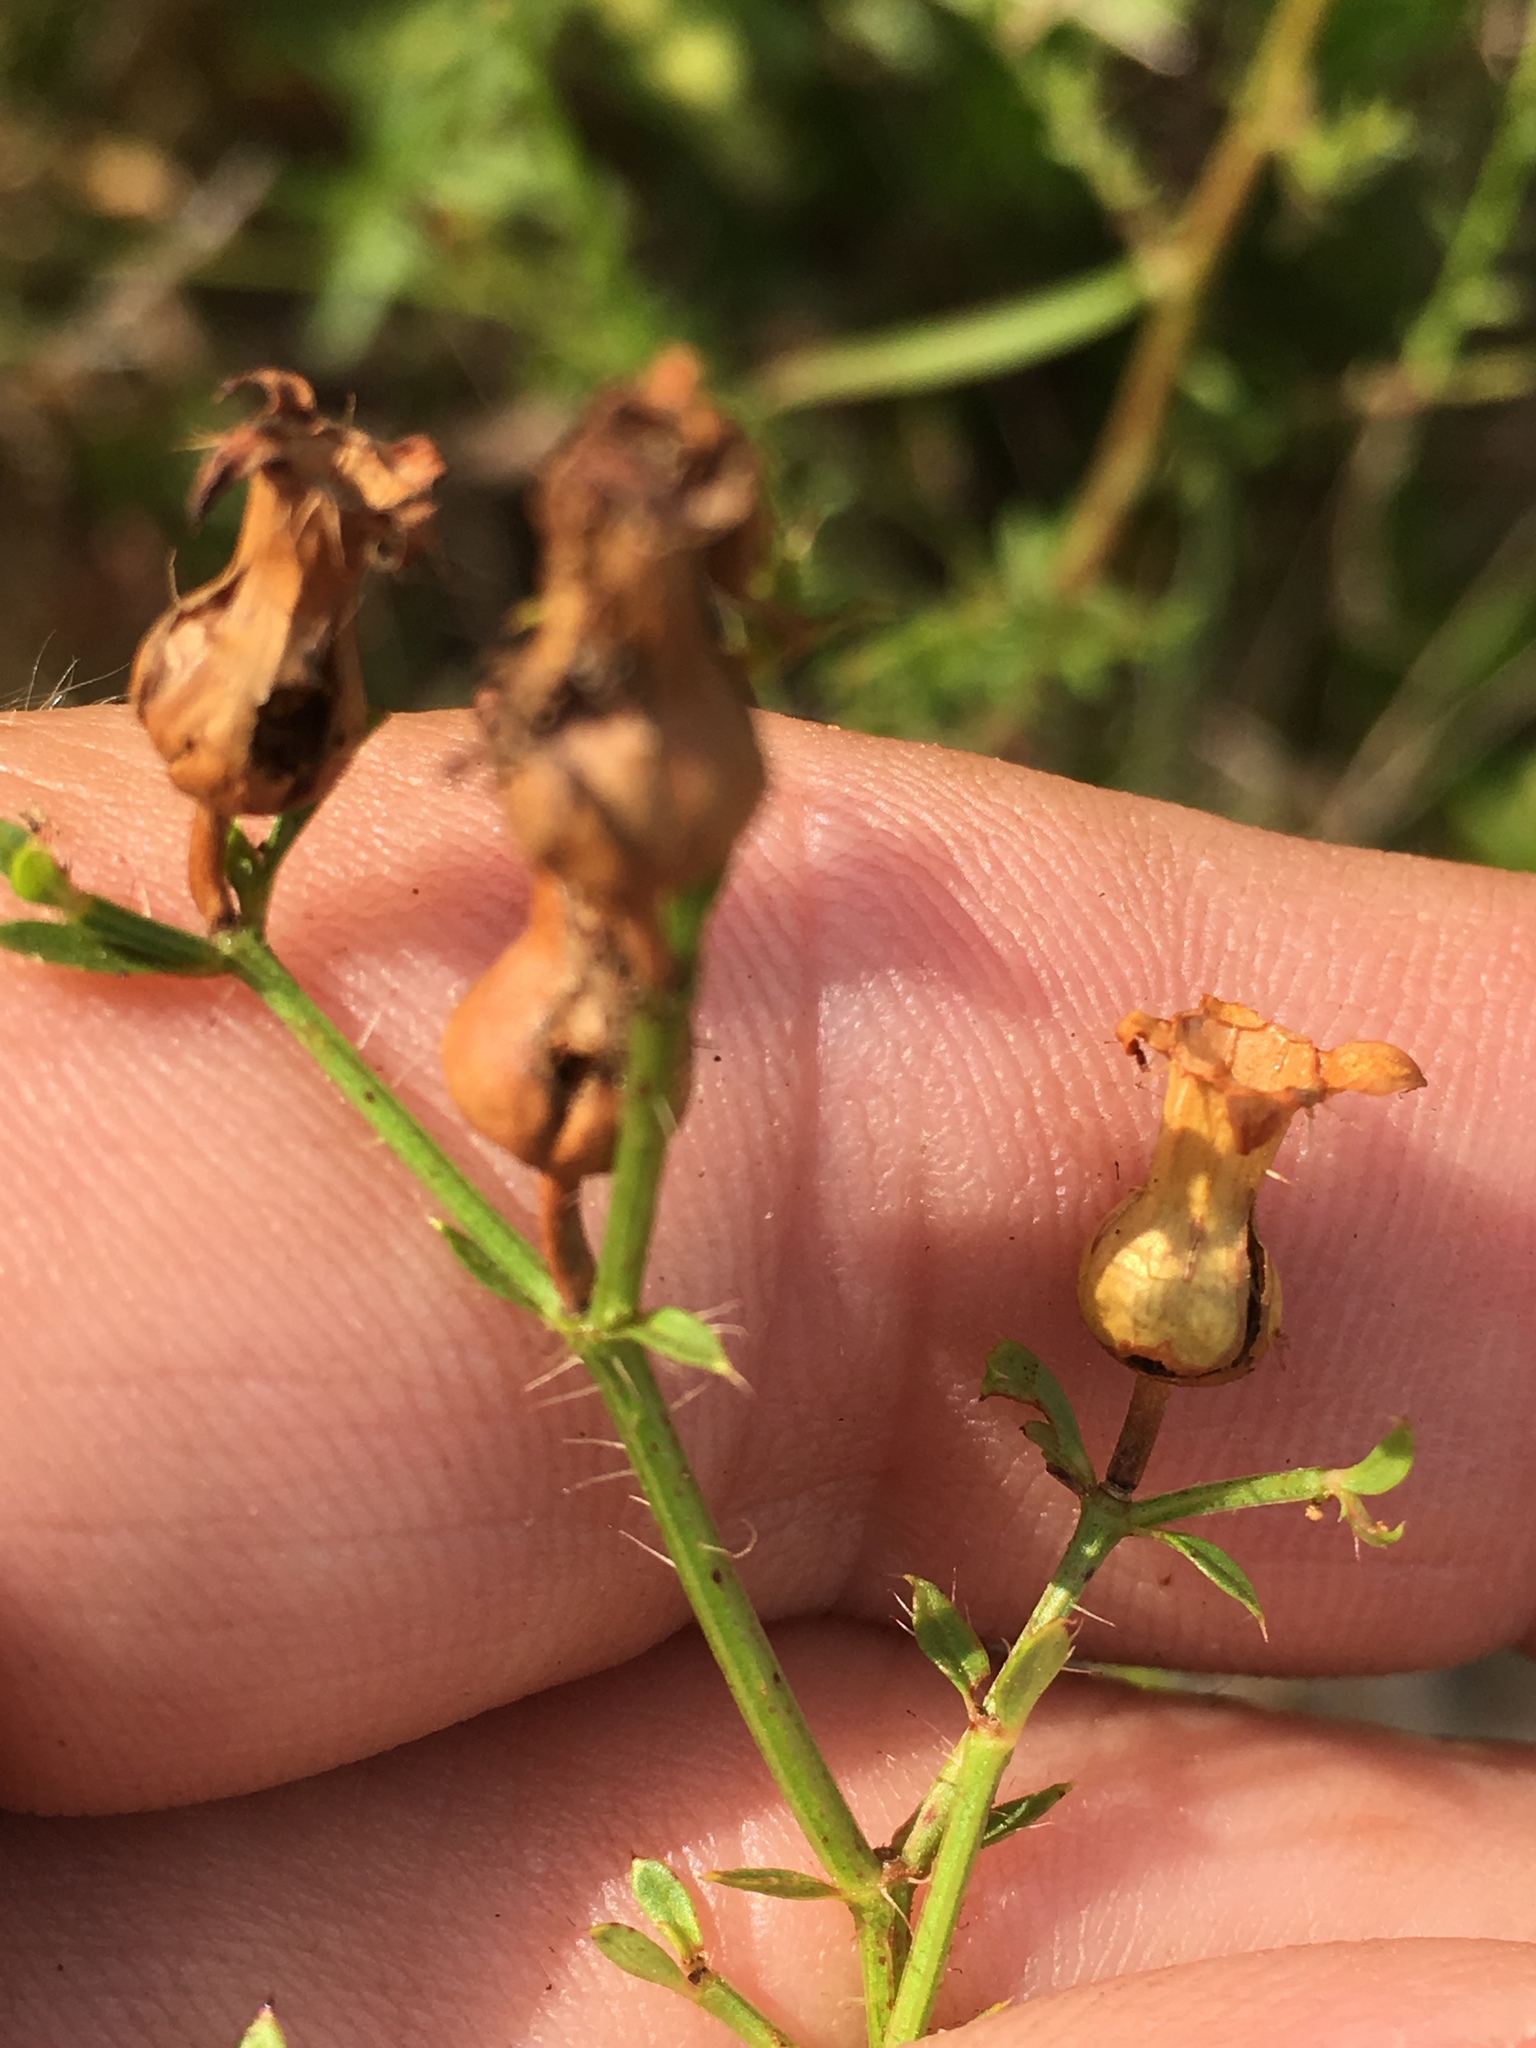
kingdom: Plantae
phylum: Tracheophyta
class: Magnoliopsida
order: Myrtales
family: Melastomataceae
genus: Rhexia
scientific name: Rhexia mariana
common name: Dull meadow-pitcher
